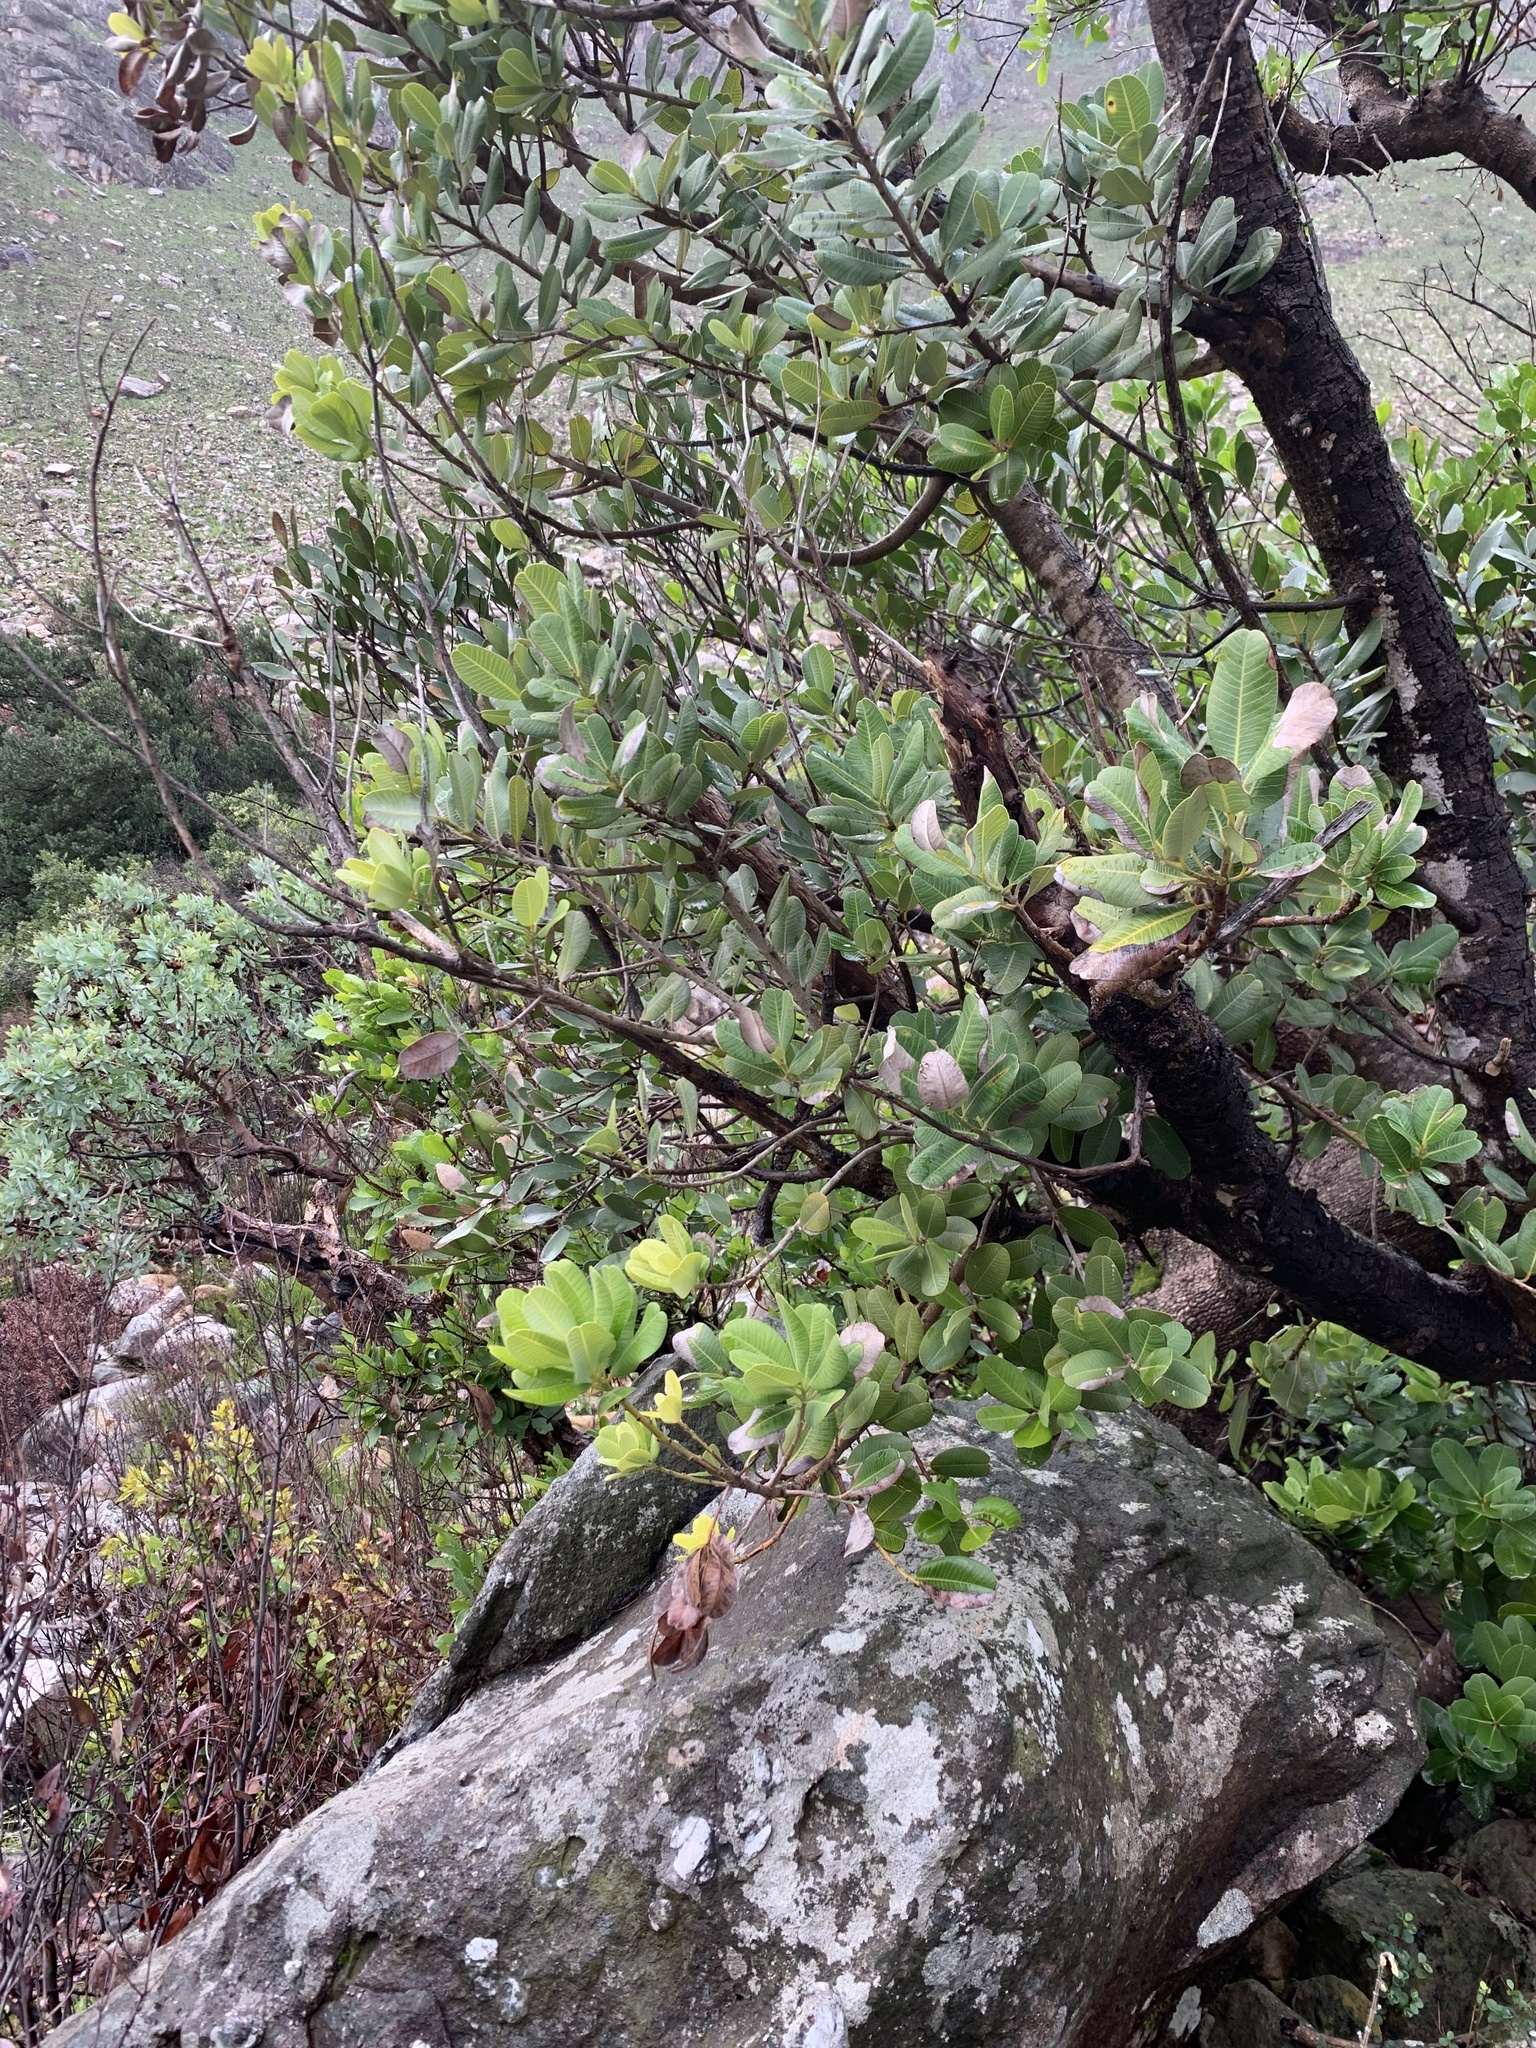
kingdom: Plantae
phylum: Tracheophyta
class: Magnoliopsida
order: Sapindales
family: Anacardiaceae
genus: Heeria
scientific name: Heeria argentea
